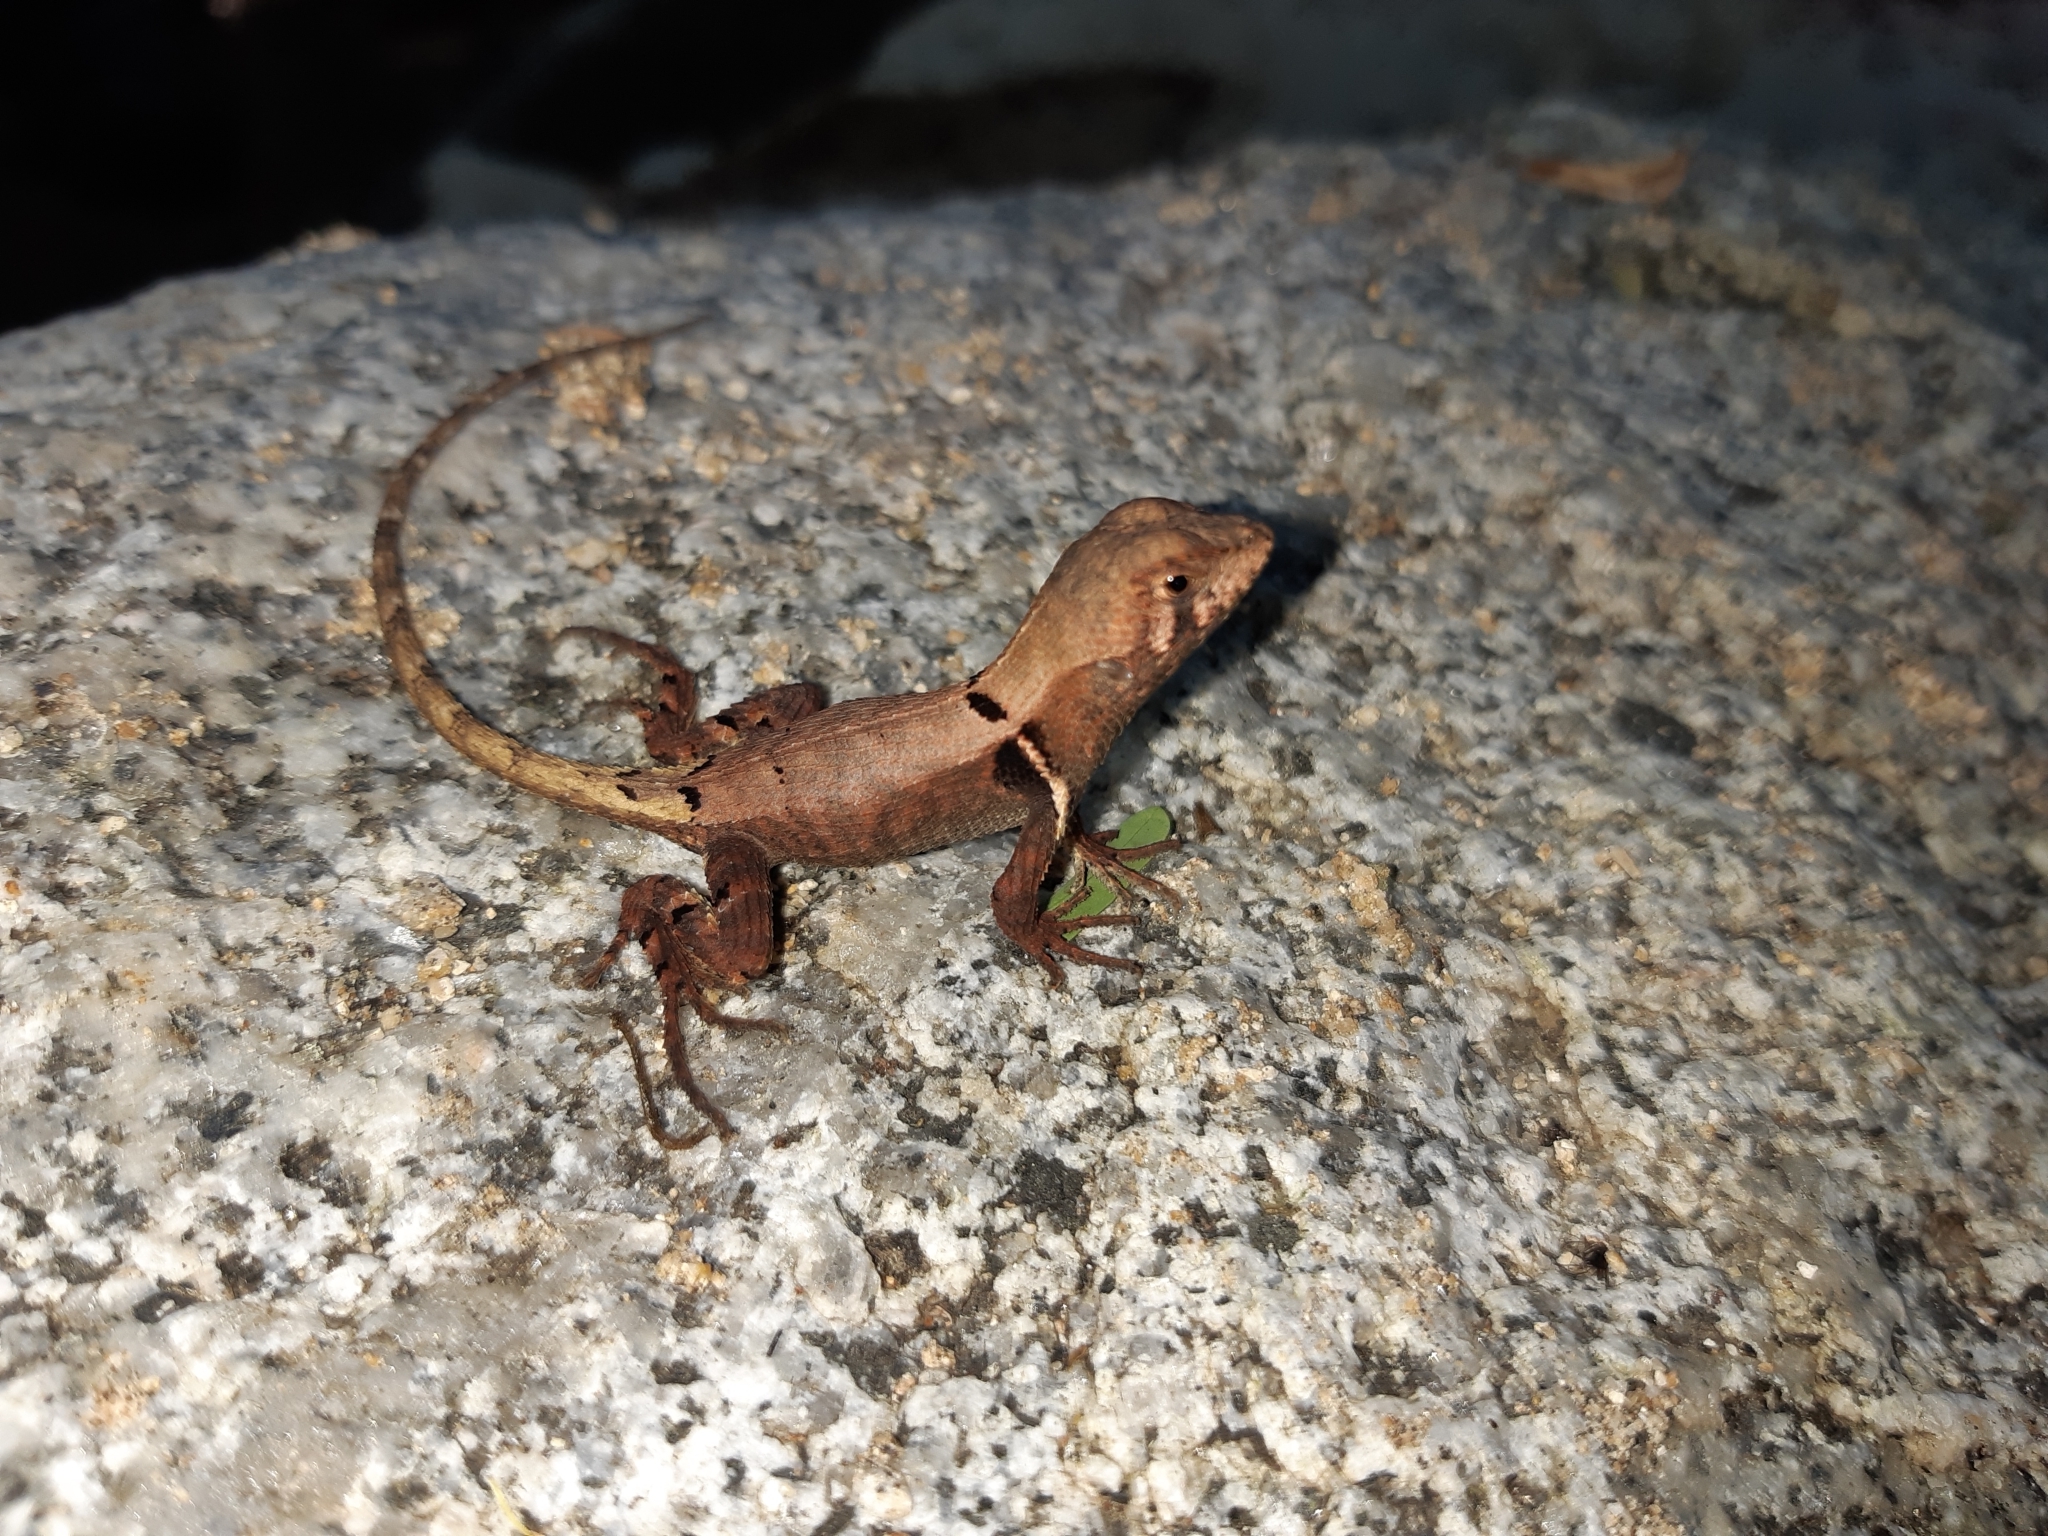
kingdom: Animalia
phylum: Chordata
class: Squamata
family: Tropiduridae
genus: Stenocercus
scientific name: Stenocercus erythrogaster
